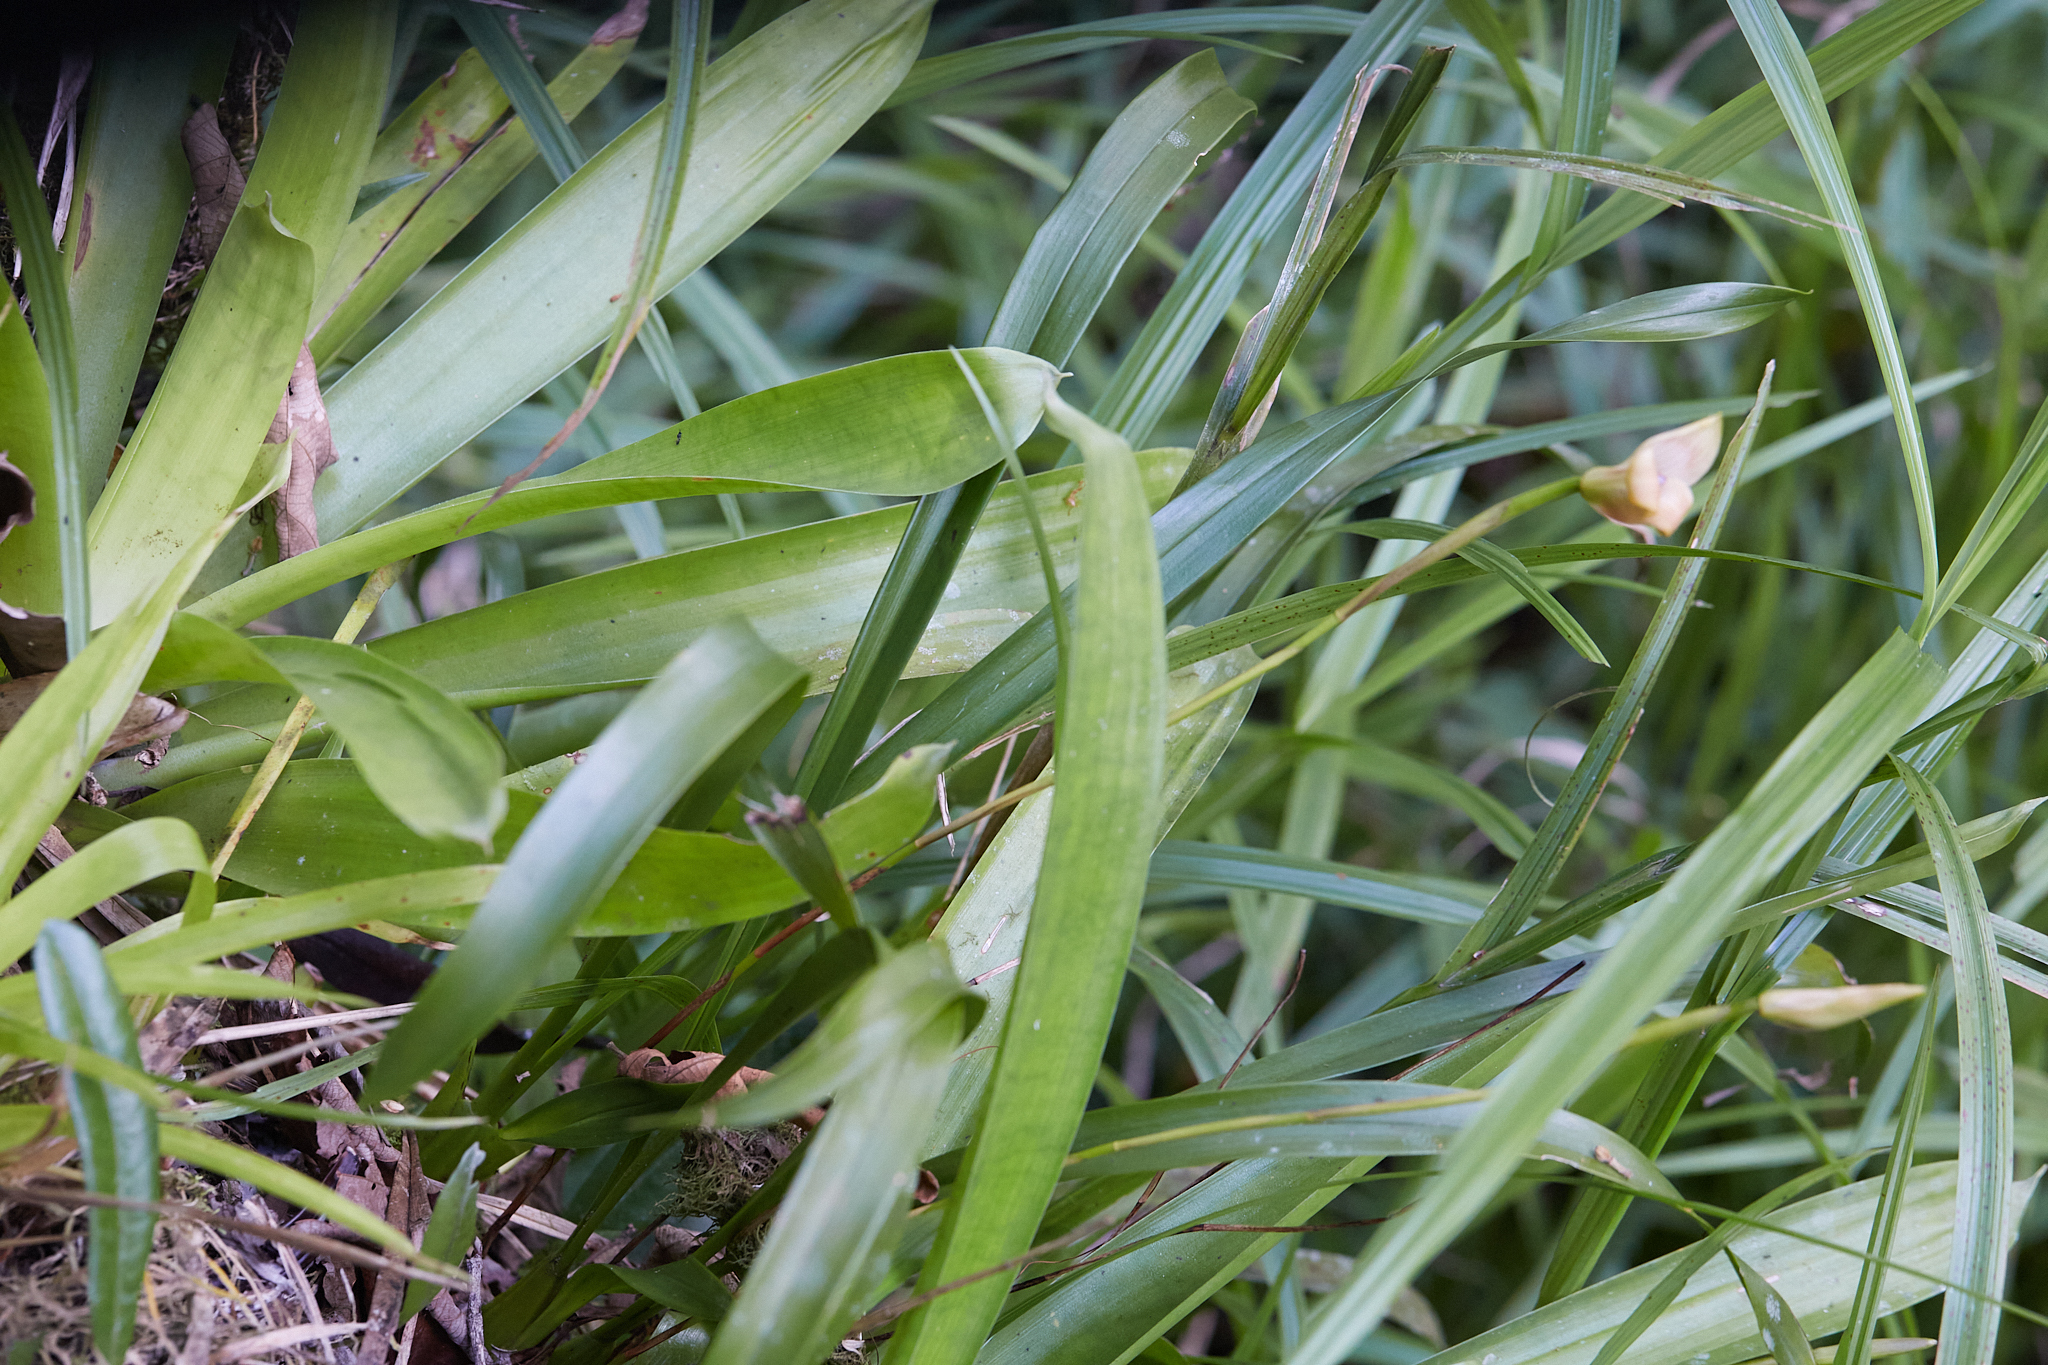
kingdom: Plantae
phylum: Tracheophyta
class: Liliopsida
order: Asparagales
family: Orchidaceae
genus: Maxillaria
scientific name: Maxillaria egertoniana
